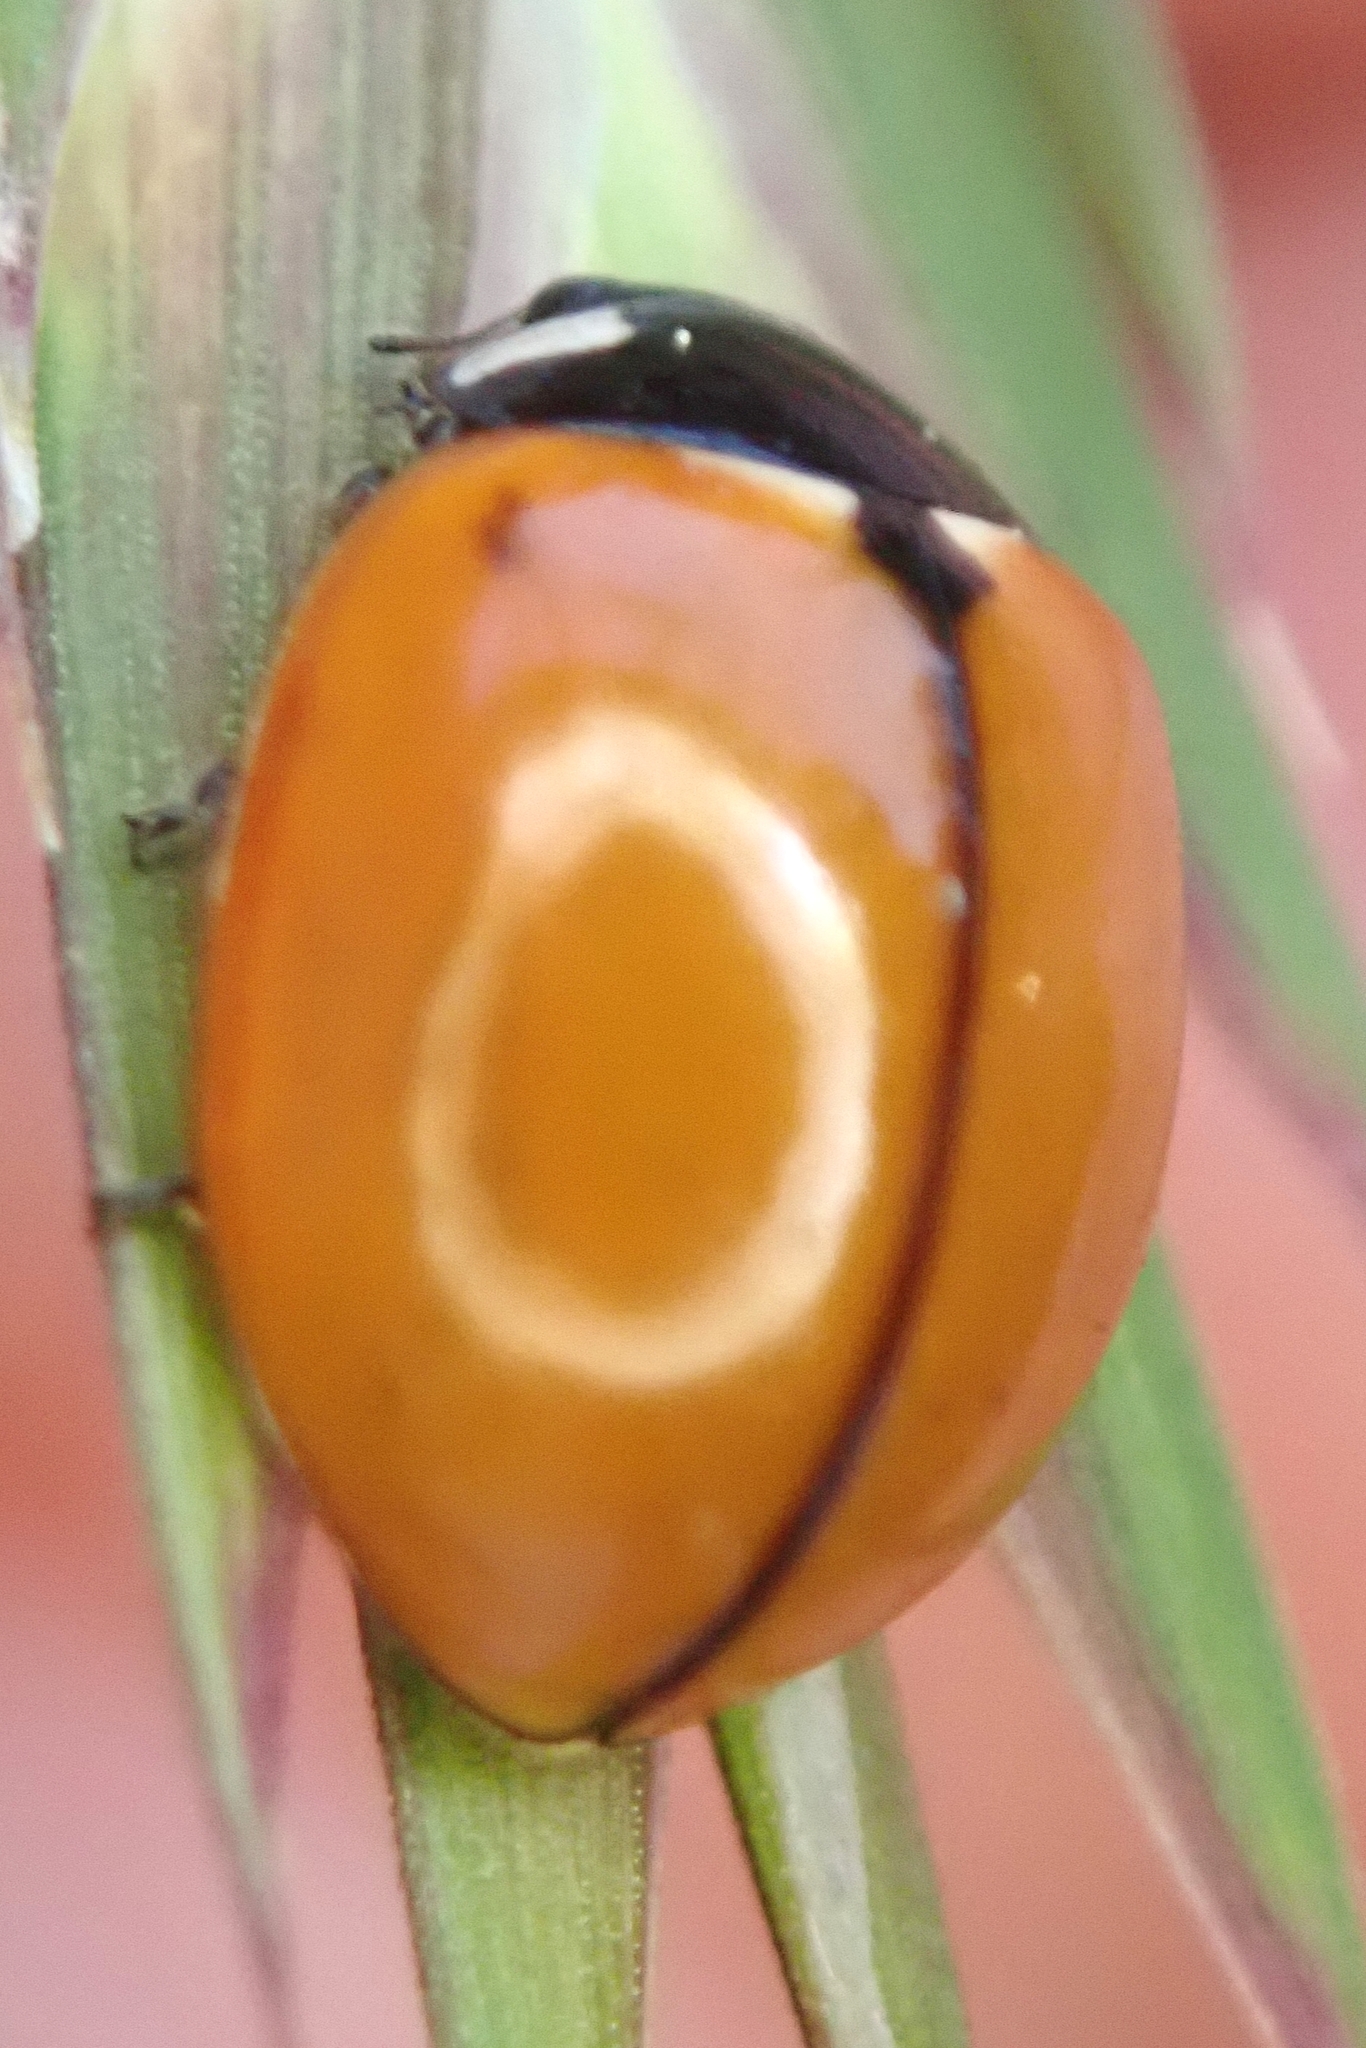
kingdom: Animalia
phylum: Arthropoda
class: Insecta
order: Coleoptera
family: Coccinellidae
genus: Coccinella
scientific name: Coccinella californica
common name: Lady beetle
